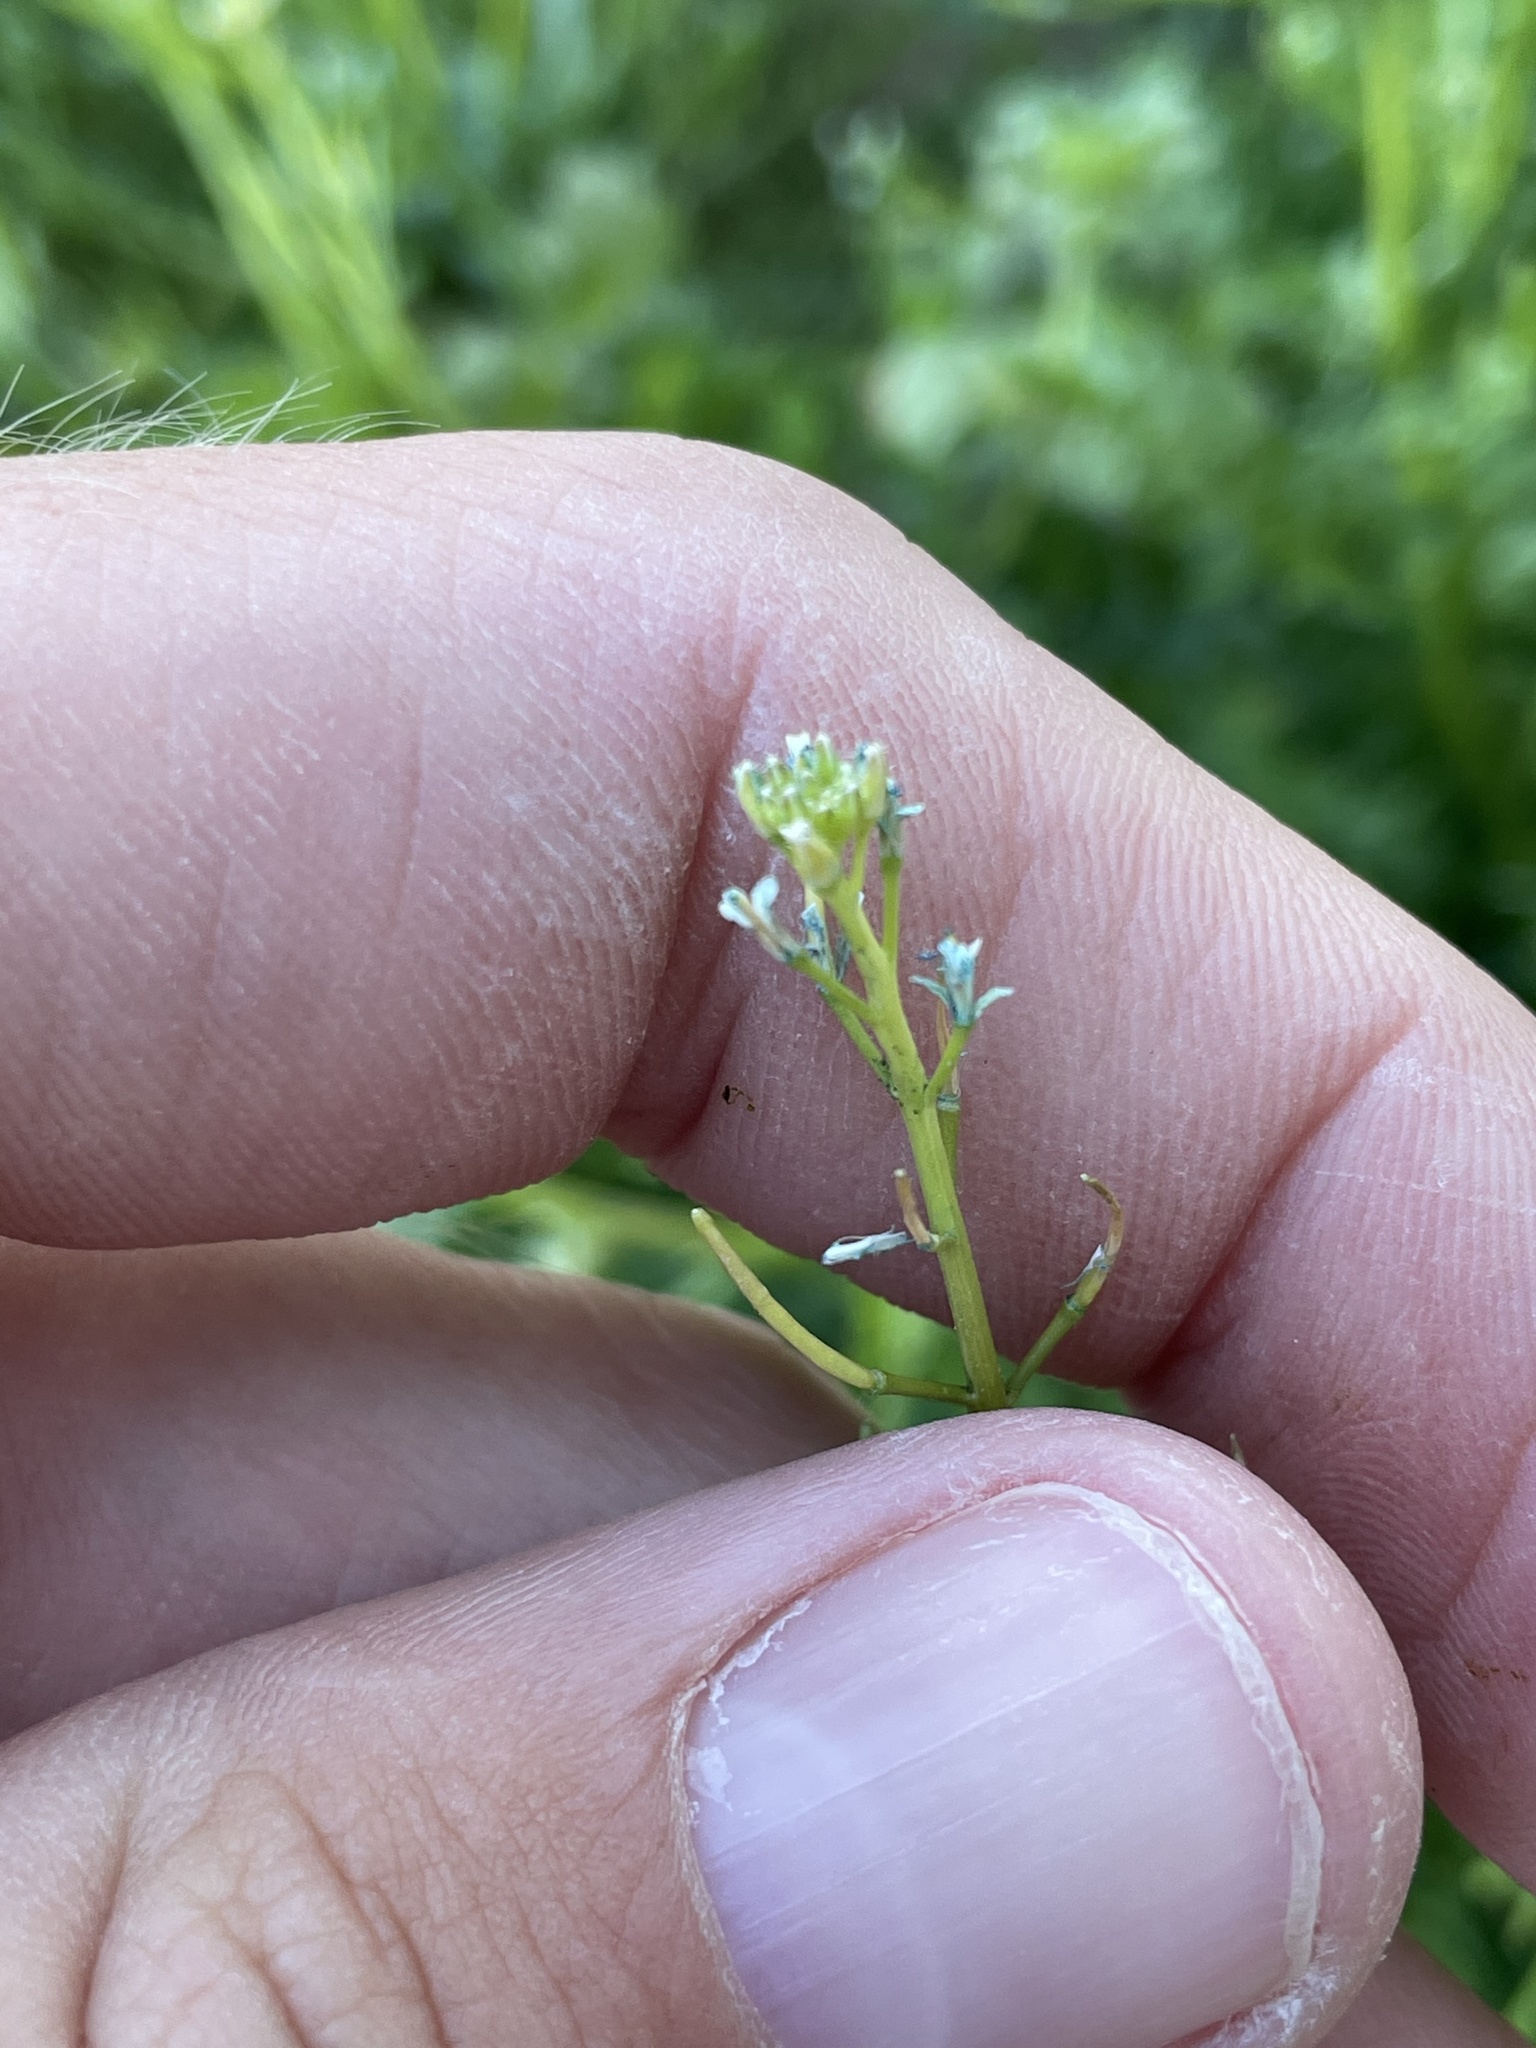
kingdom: Plantae
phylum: Tracheophyta
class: Magnoliopsida
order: Brassicales
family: Brassicaceae
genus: Planodes
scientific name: Planodes virginicum
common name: Virginia cress
